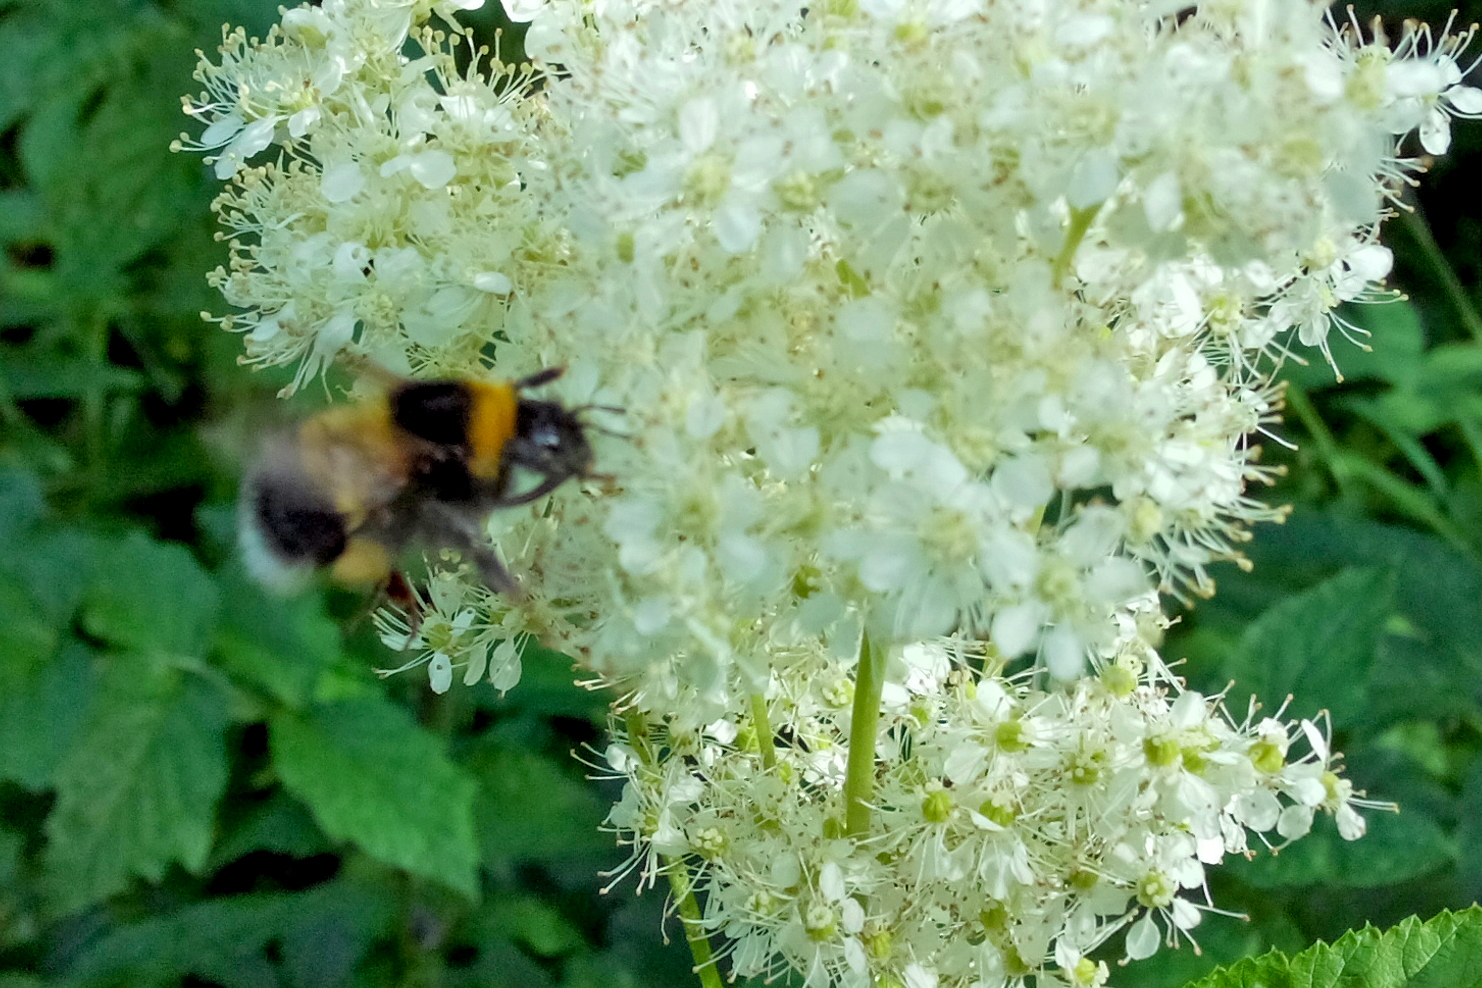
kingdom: Animalia
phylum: Arthropoda
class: Insecta
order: Hymenoptera
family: Apidae
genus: Bombus
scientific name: Bombus hortorum
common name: Garden bumblebee
